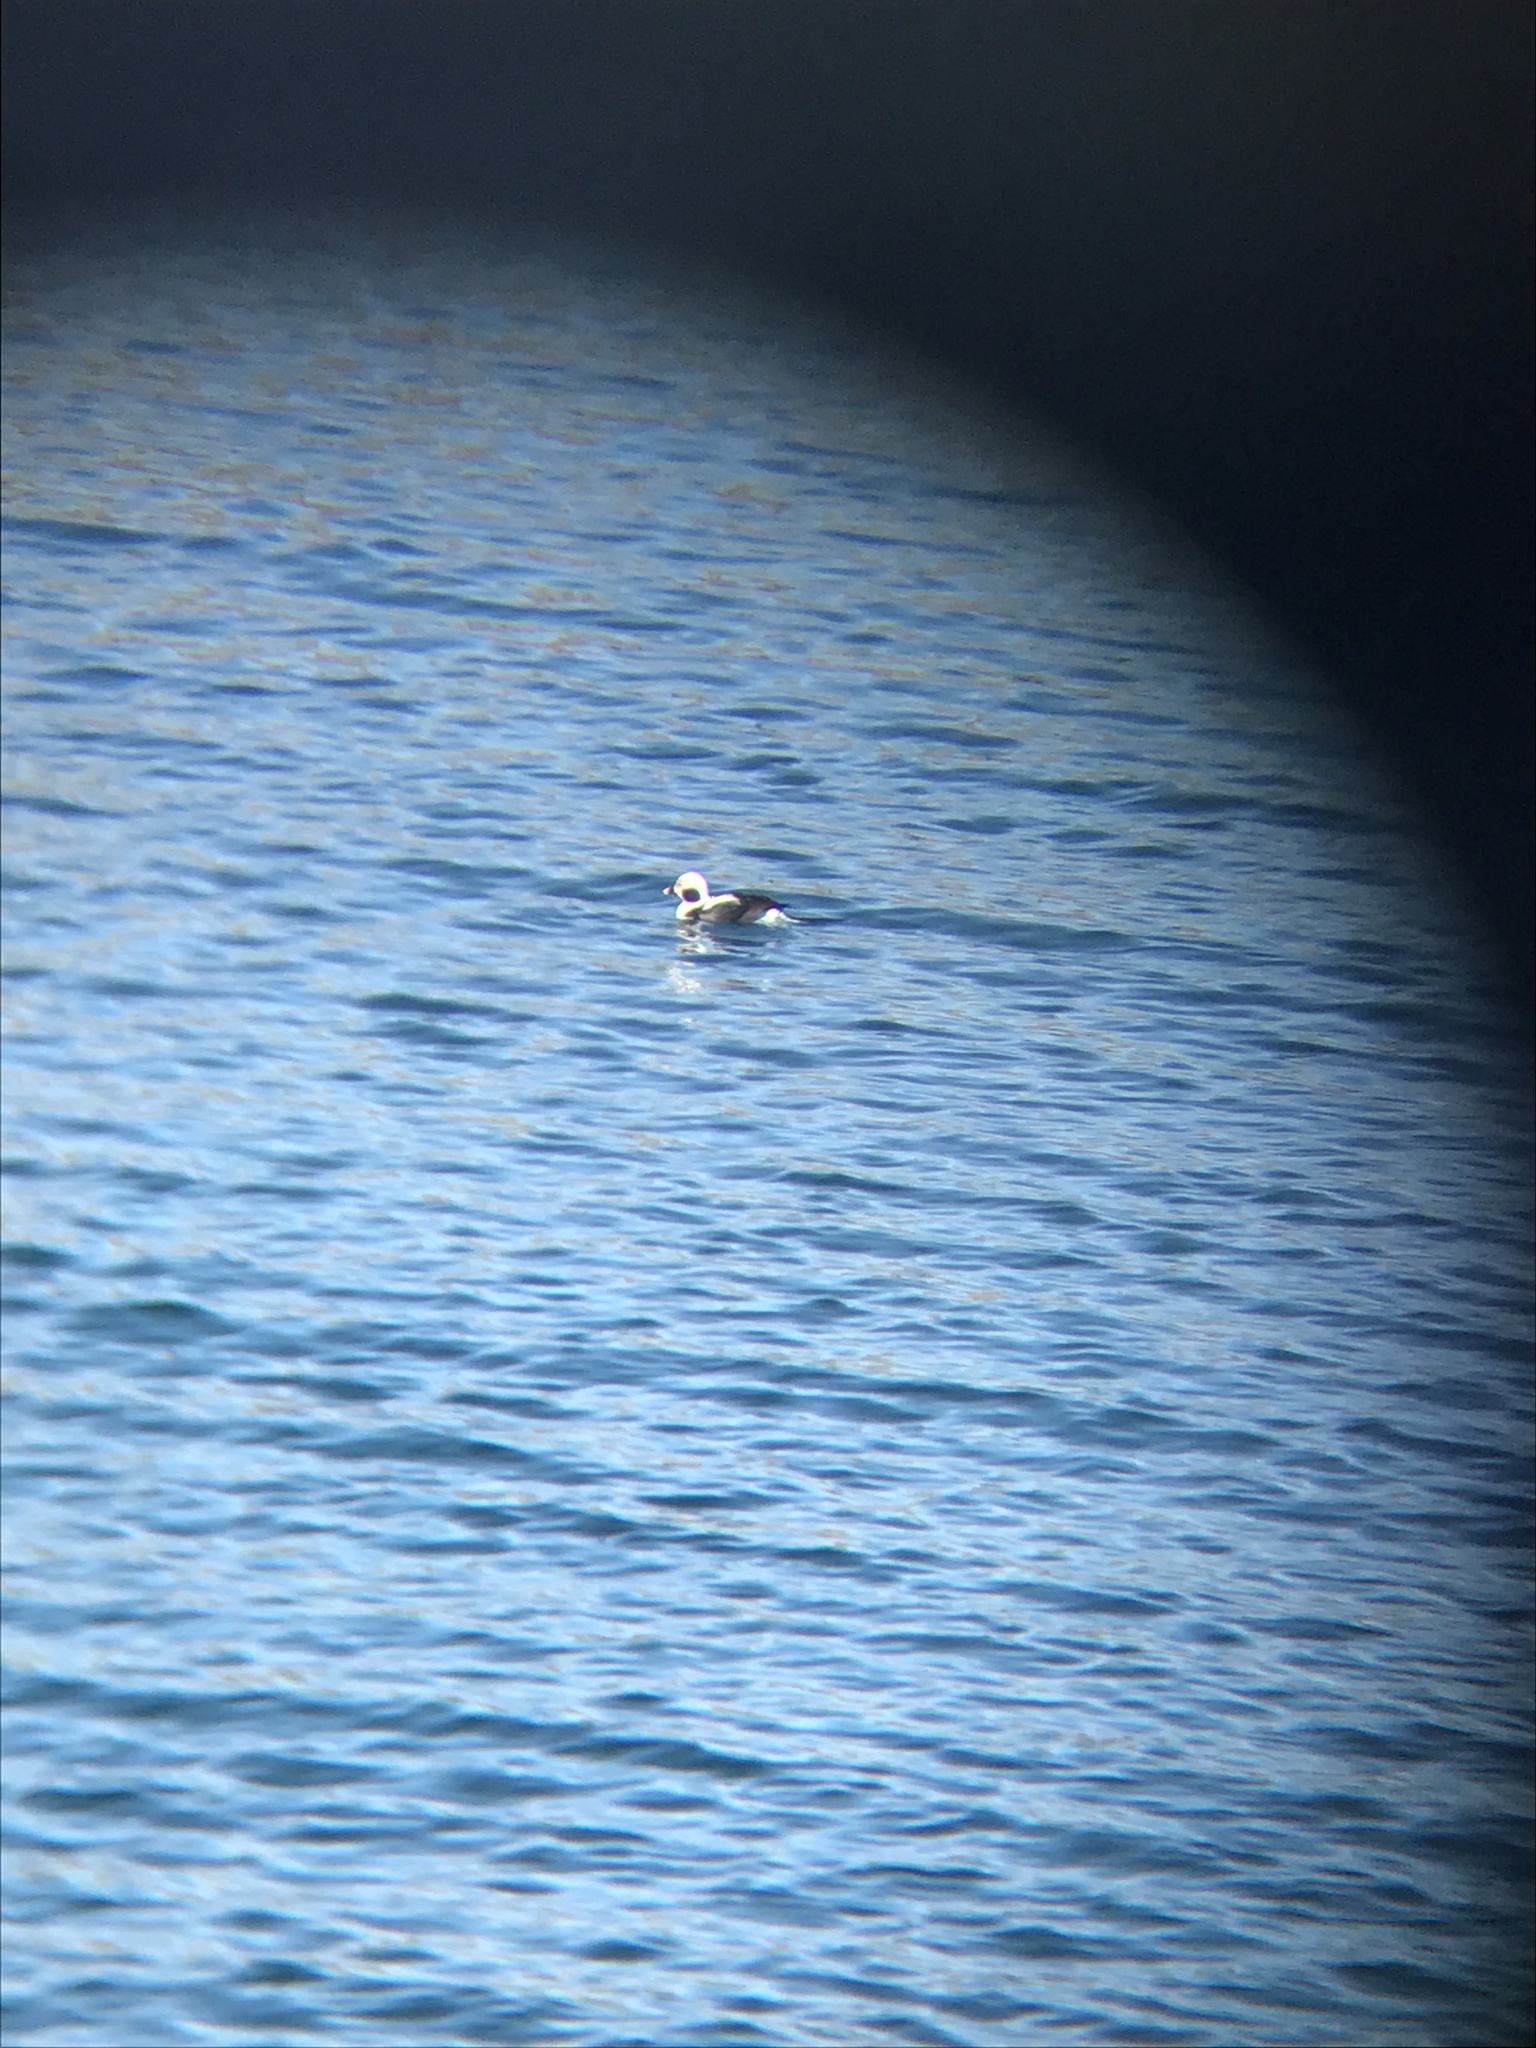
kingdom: Animalia
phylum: Chordata
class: Aves
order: Anseriformes
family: Anatidae
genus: Clangula
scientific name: Clangula hyemalis
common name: Long-tailed duck
